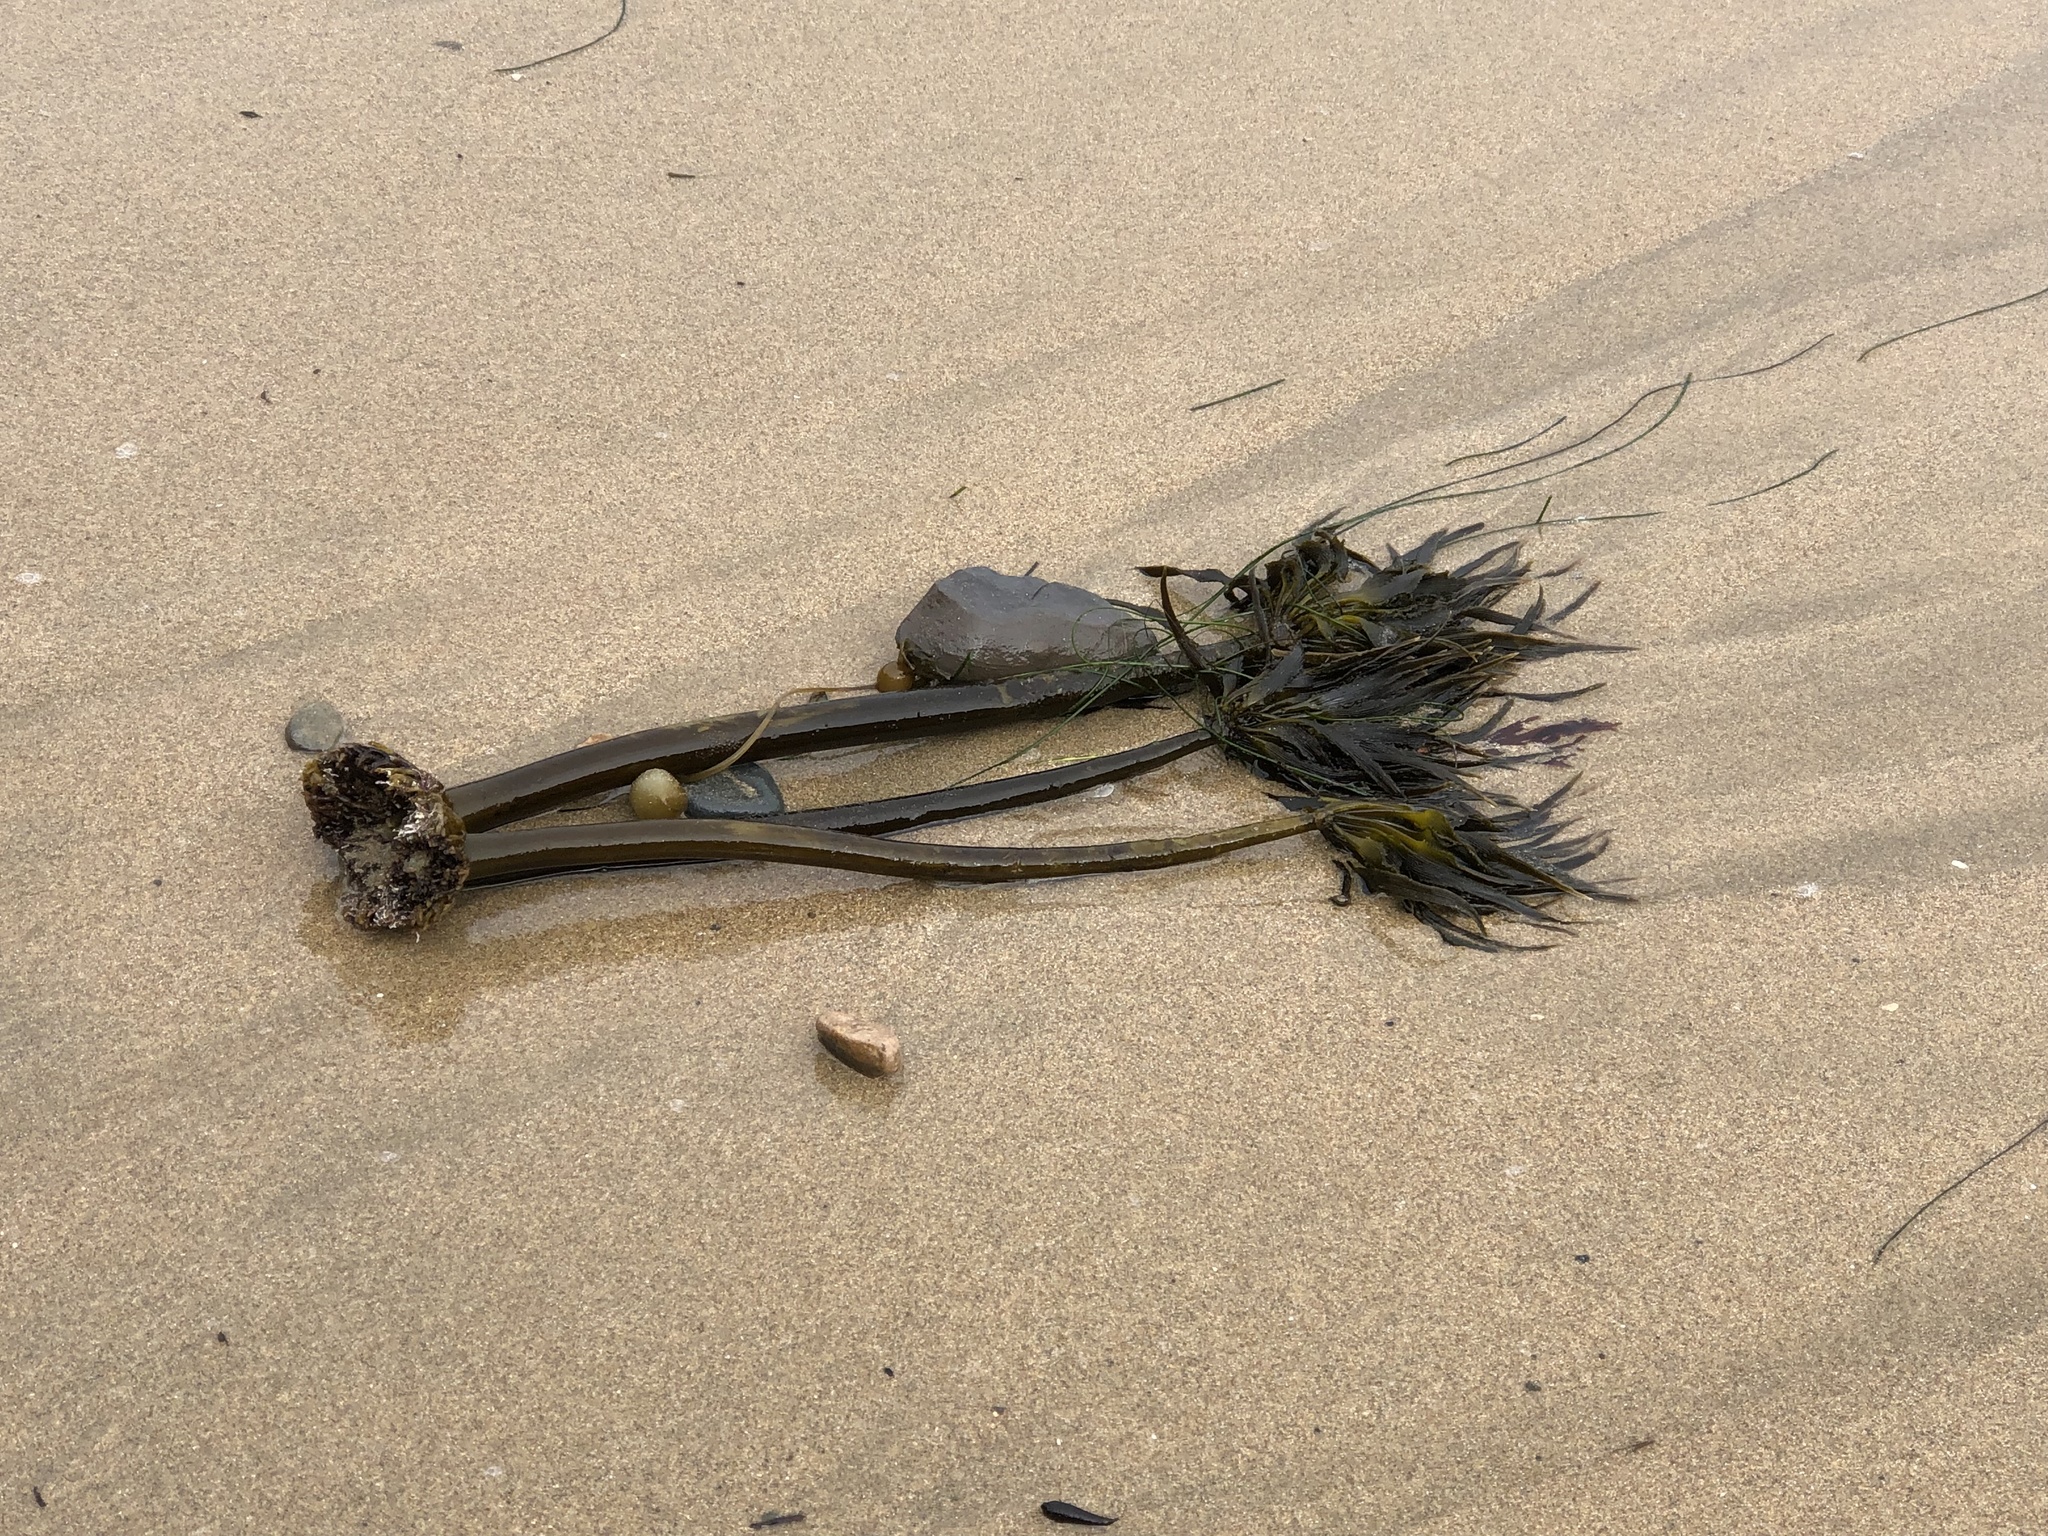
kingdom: Chromista
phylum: Ochrophyta
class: Phaeophyceae
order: Laminariales
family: Laminariaceae
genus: Postelsia
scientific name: Postelsia palmiformis
